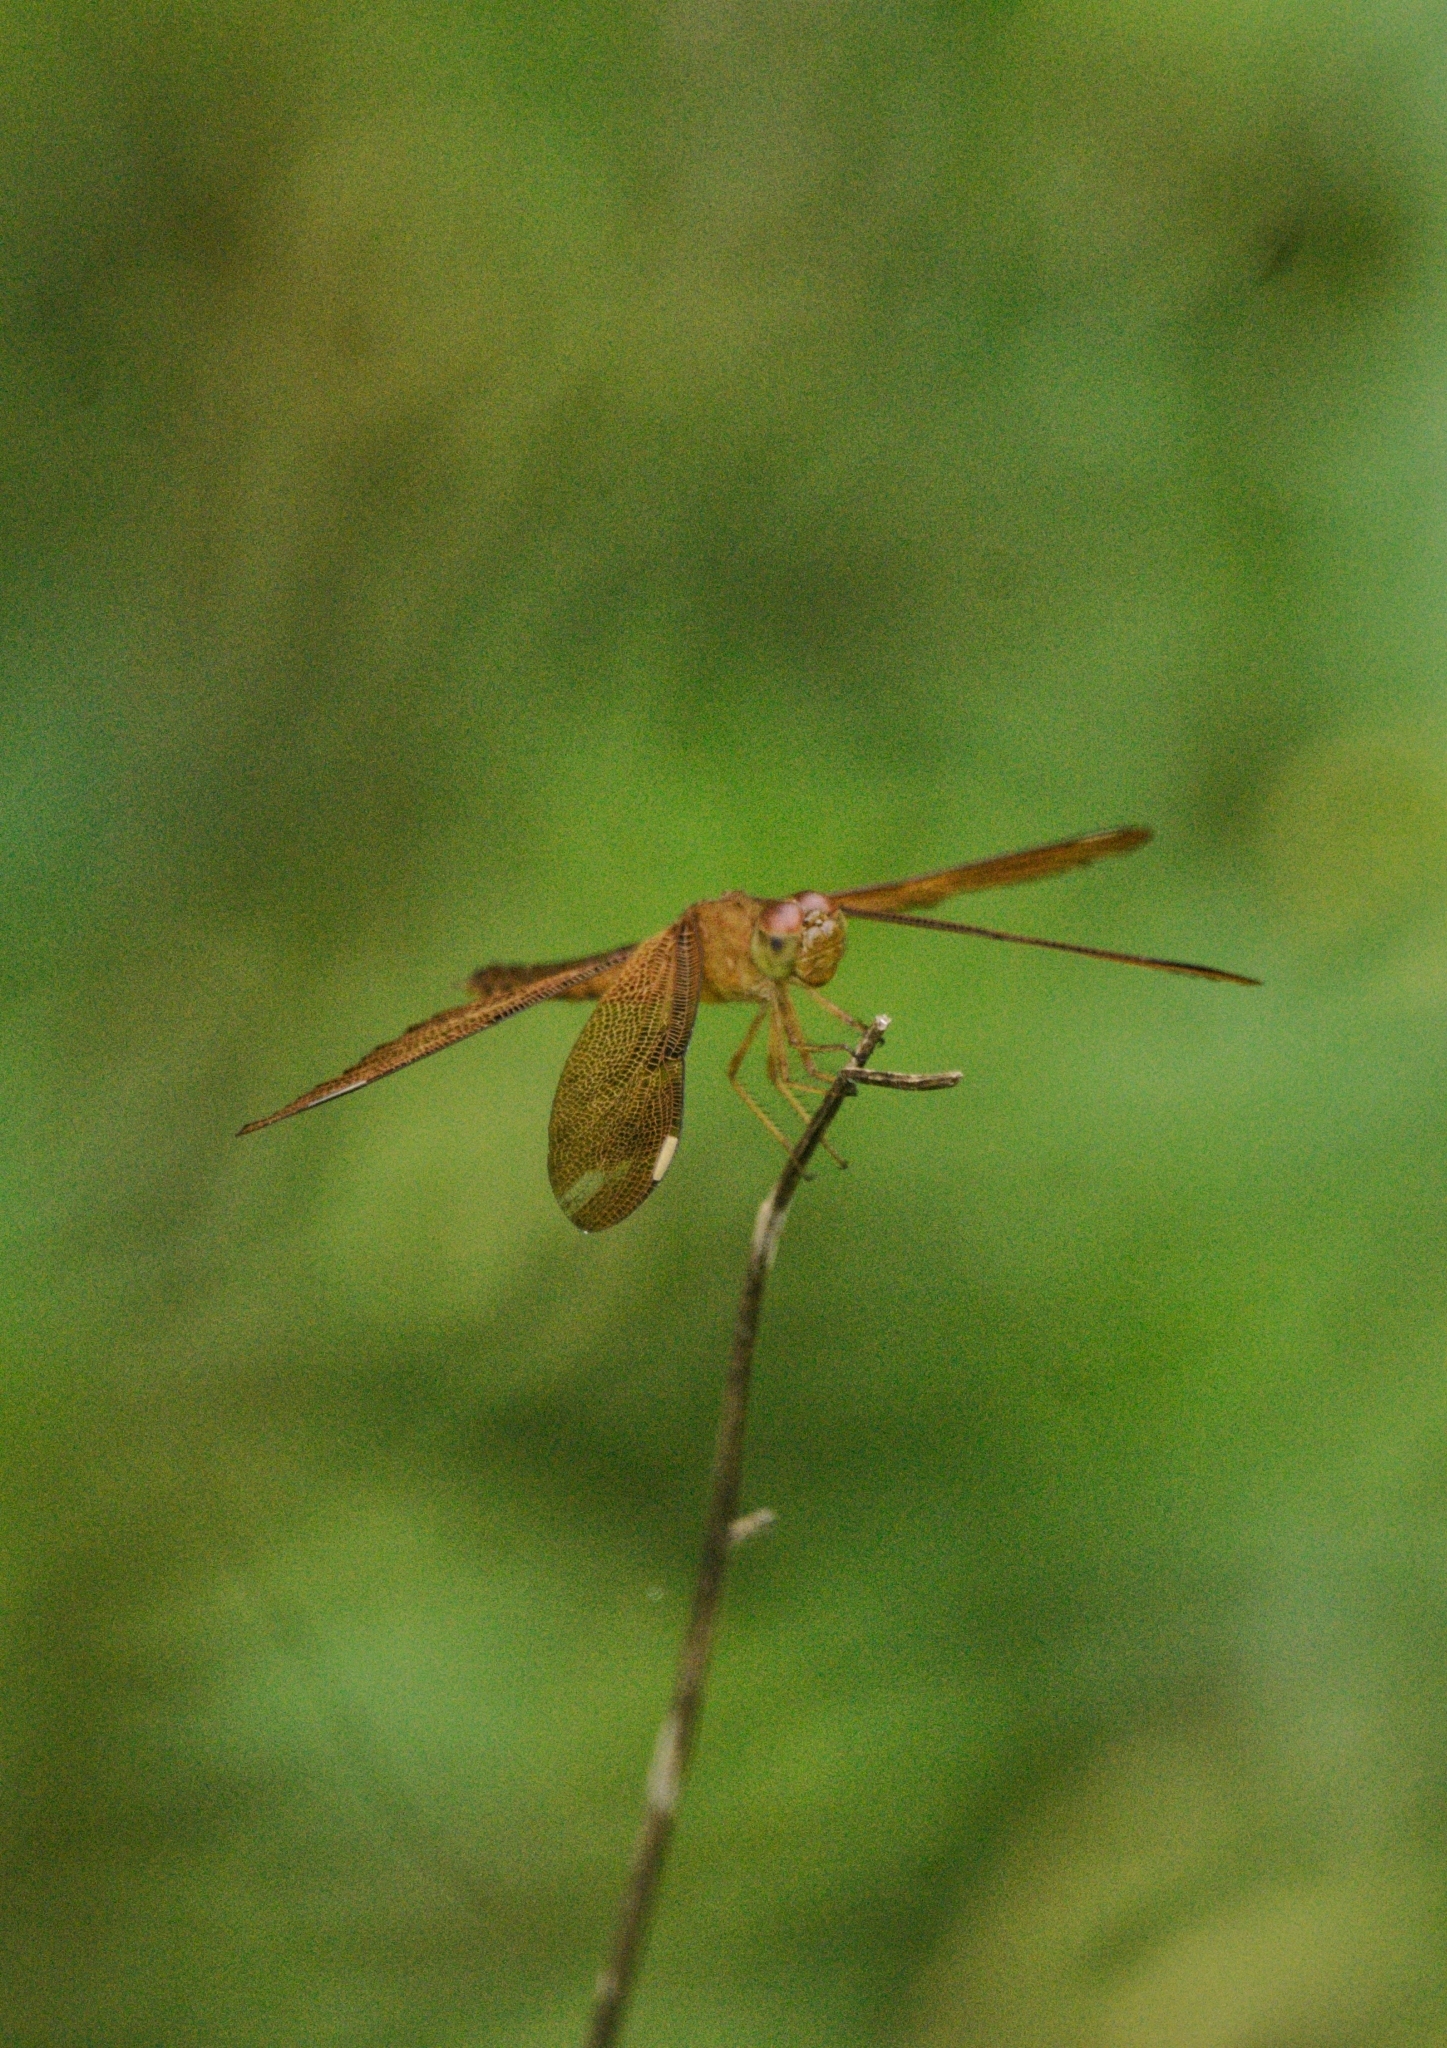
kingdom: Animalia
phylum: Arthropoda
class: Insecta
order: Odonata
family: Libellulidae
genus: Neurothemis
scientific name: Neurothemis fulvia
